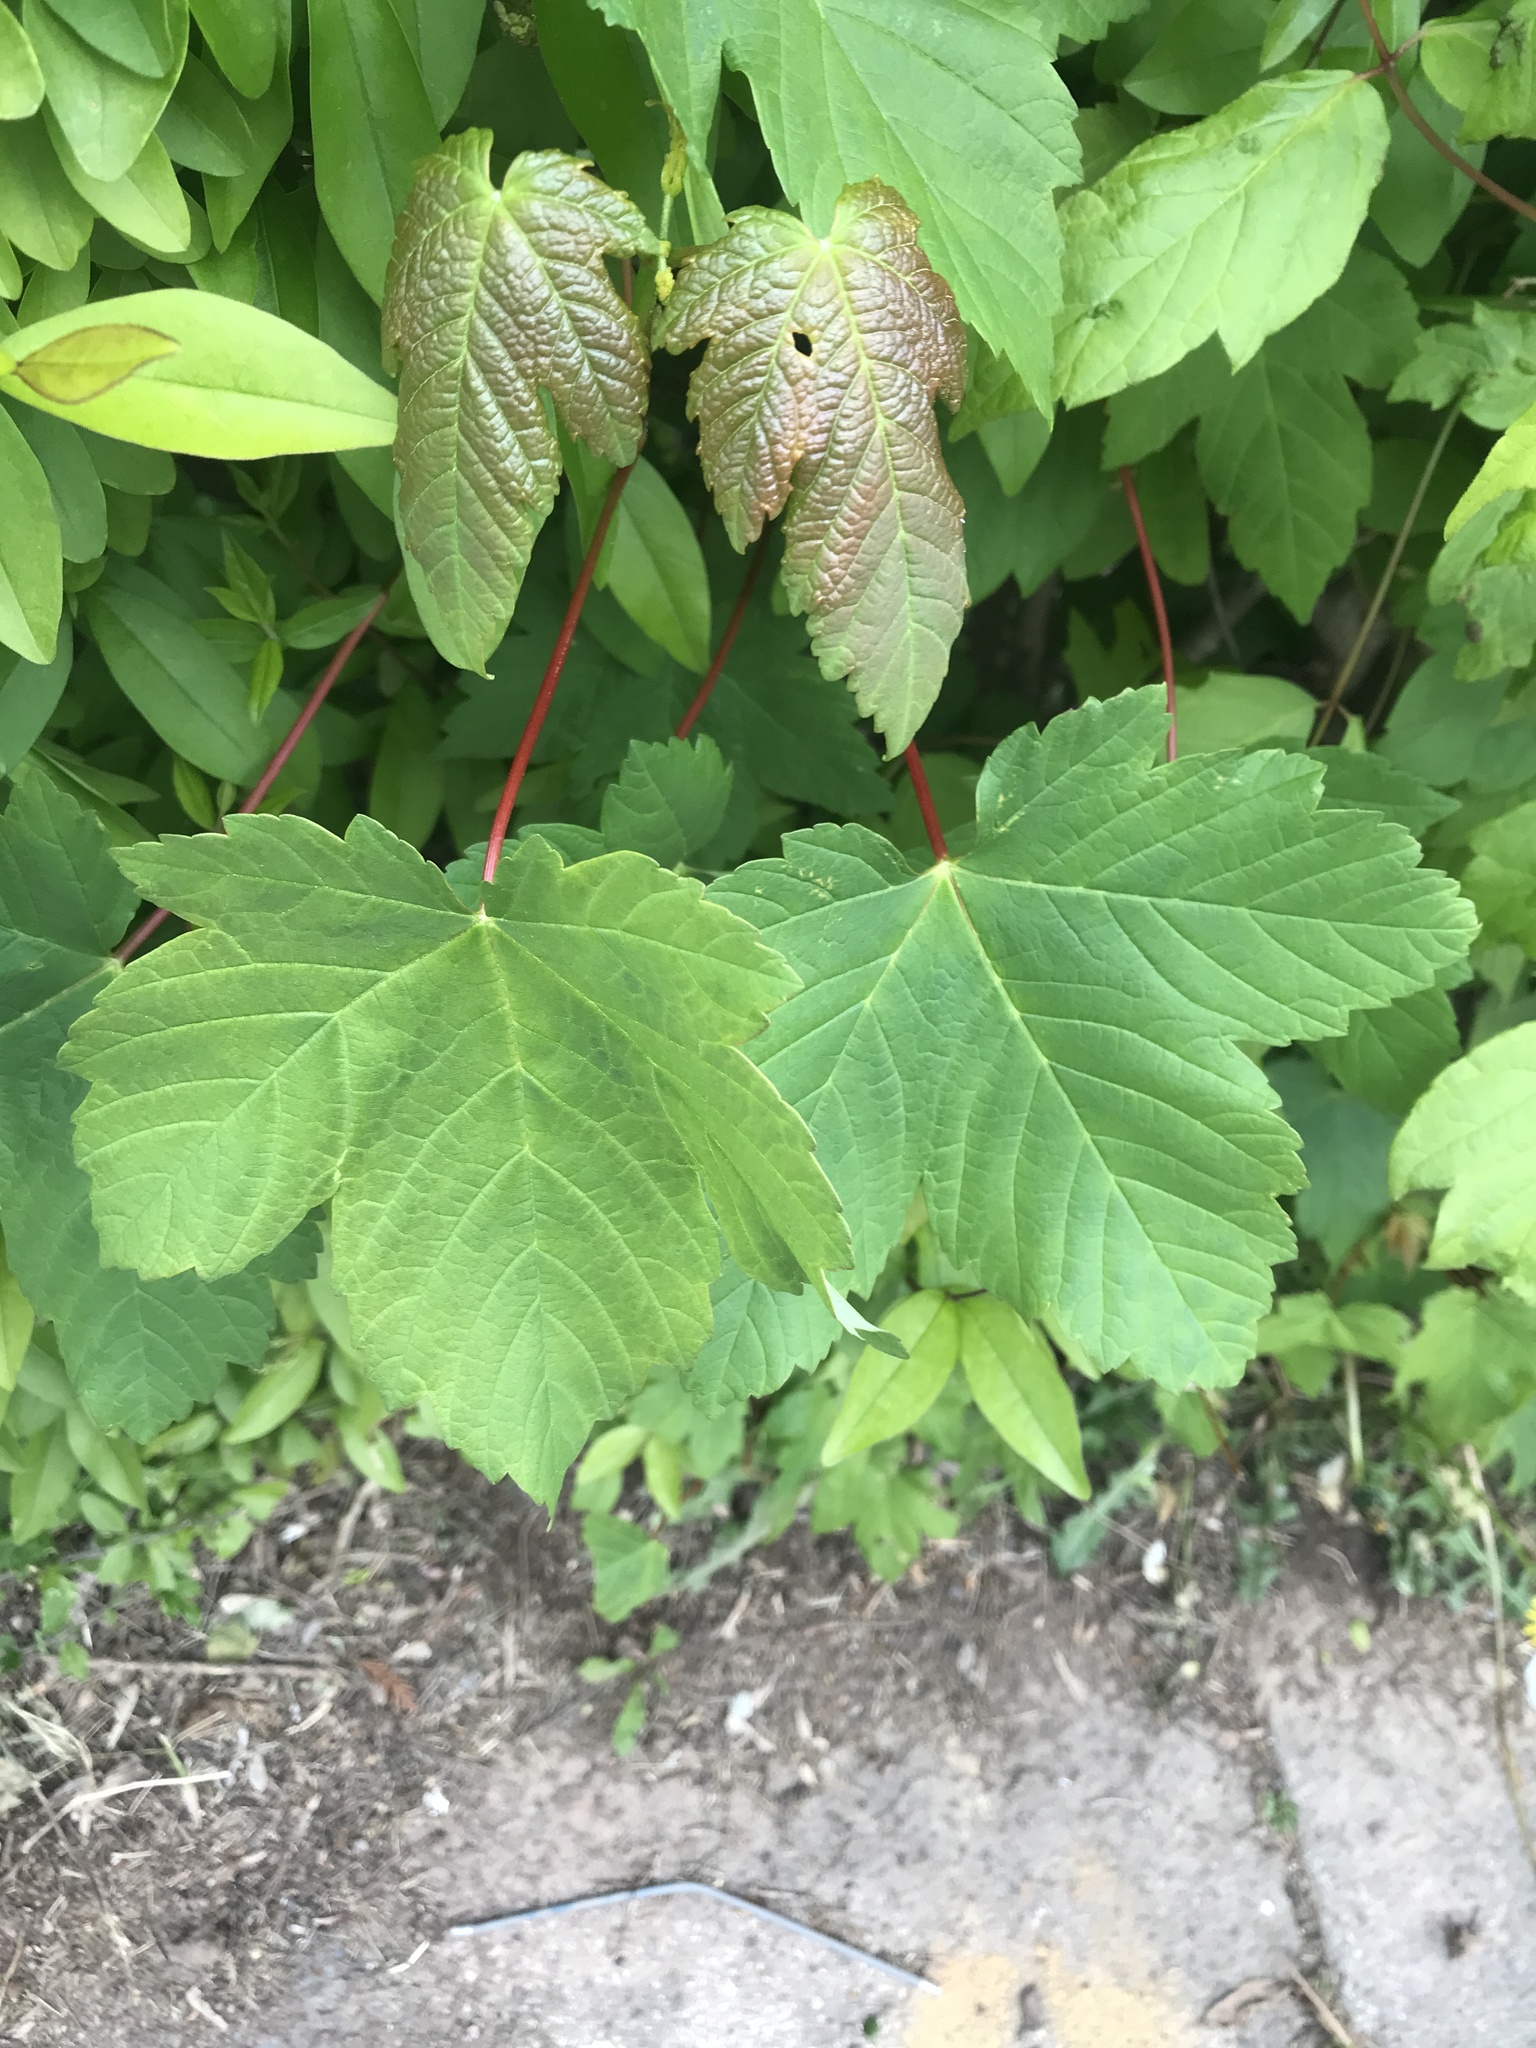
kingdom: Plantae
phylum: Tracheophyta
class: Magnoliopsida
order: Sapindales
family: Sapindaceae
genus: Acer
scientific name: Acer pseudoplatanus
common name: Sycamore
